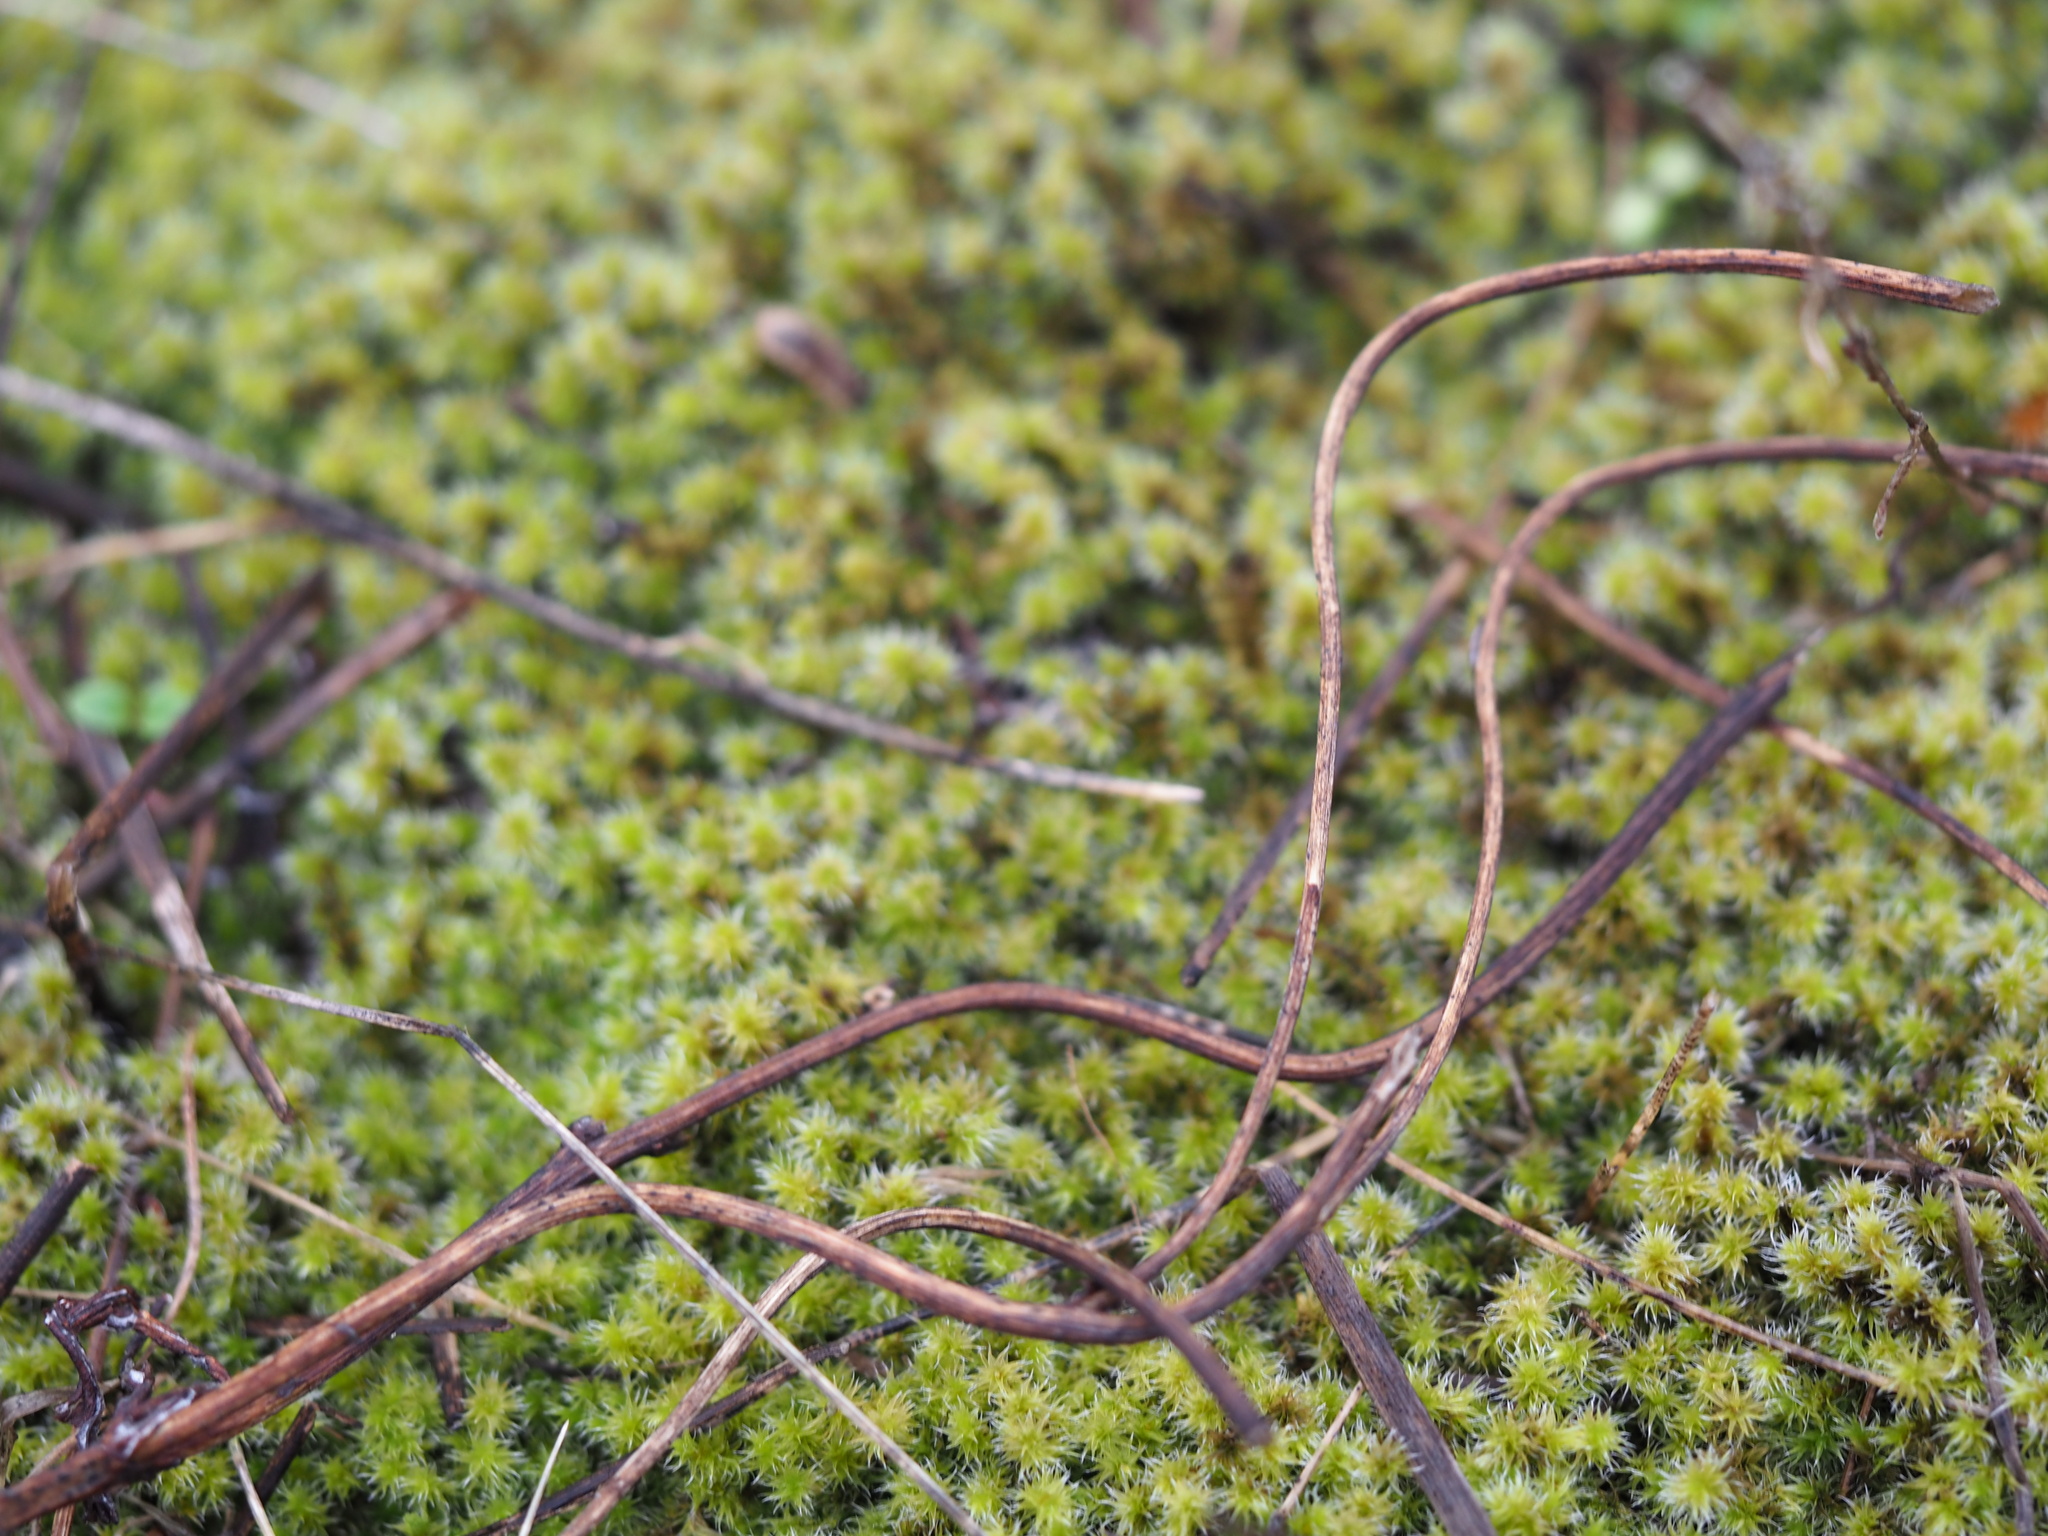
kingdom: Plantae
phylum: Bryophyta
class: Bryopsida
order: Grimmiales
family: Grimmiaceae
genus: Niphotrichum
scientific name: Niphotrichum elongatum
